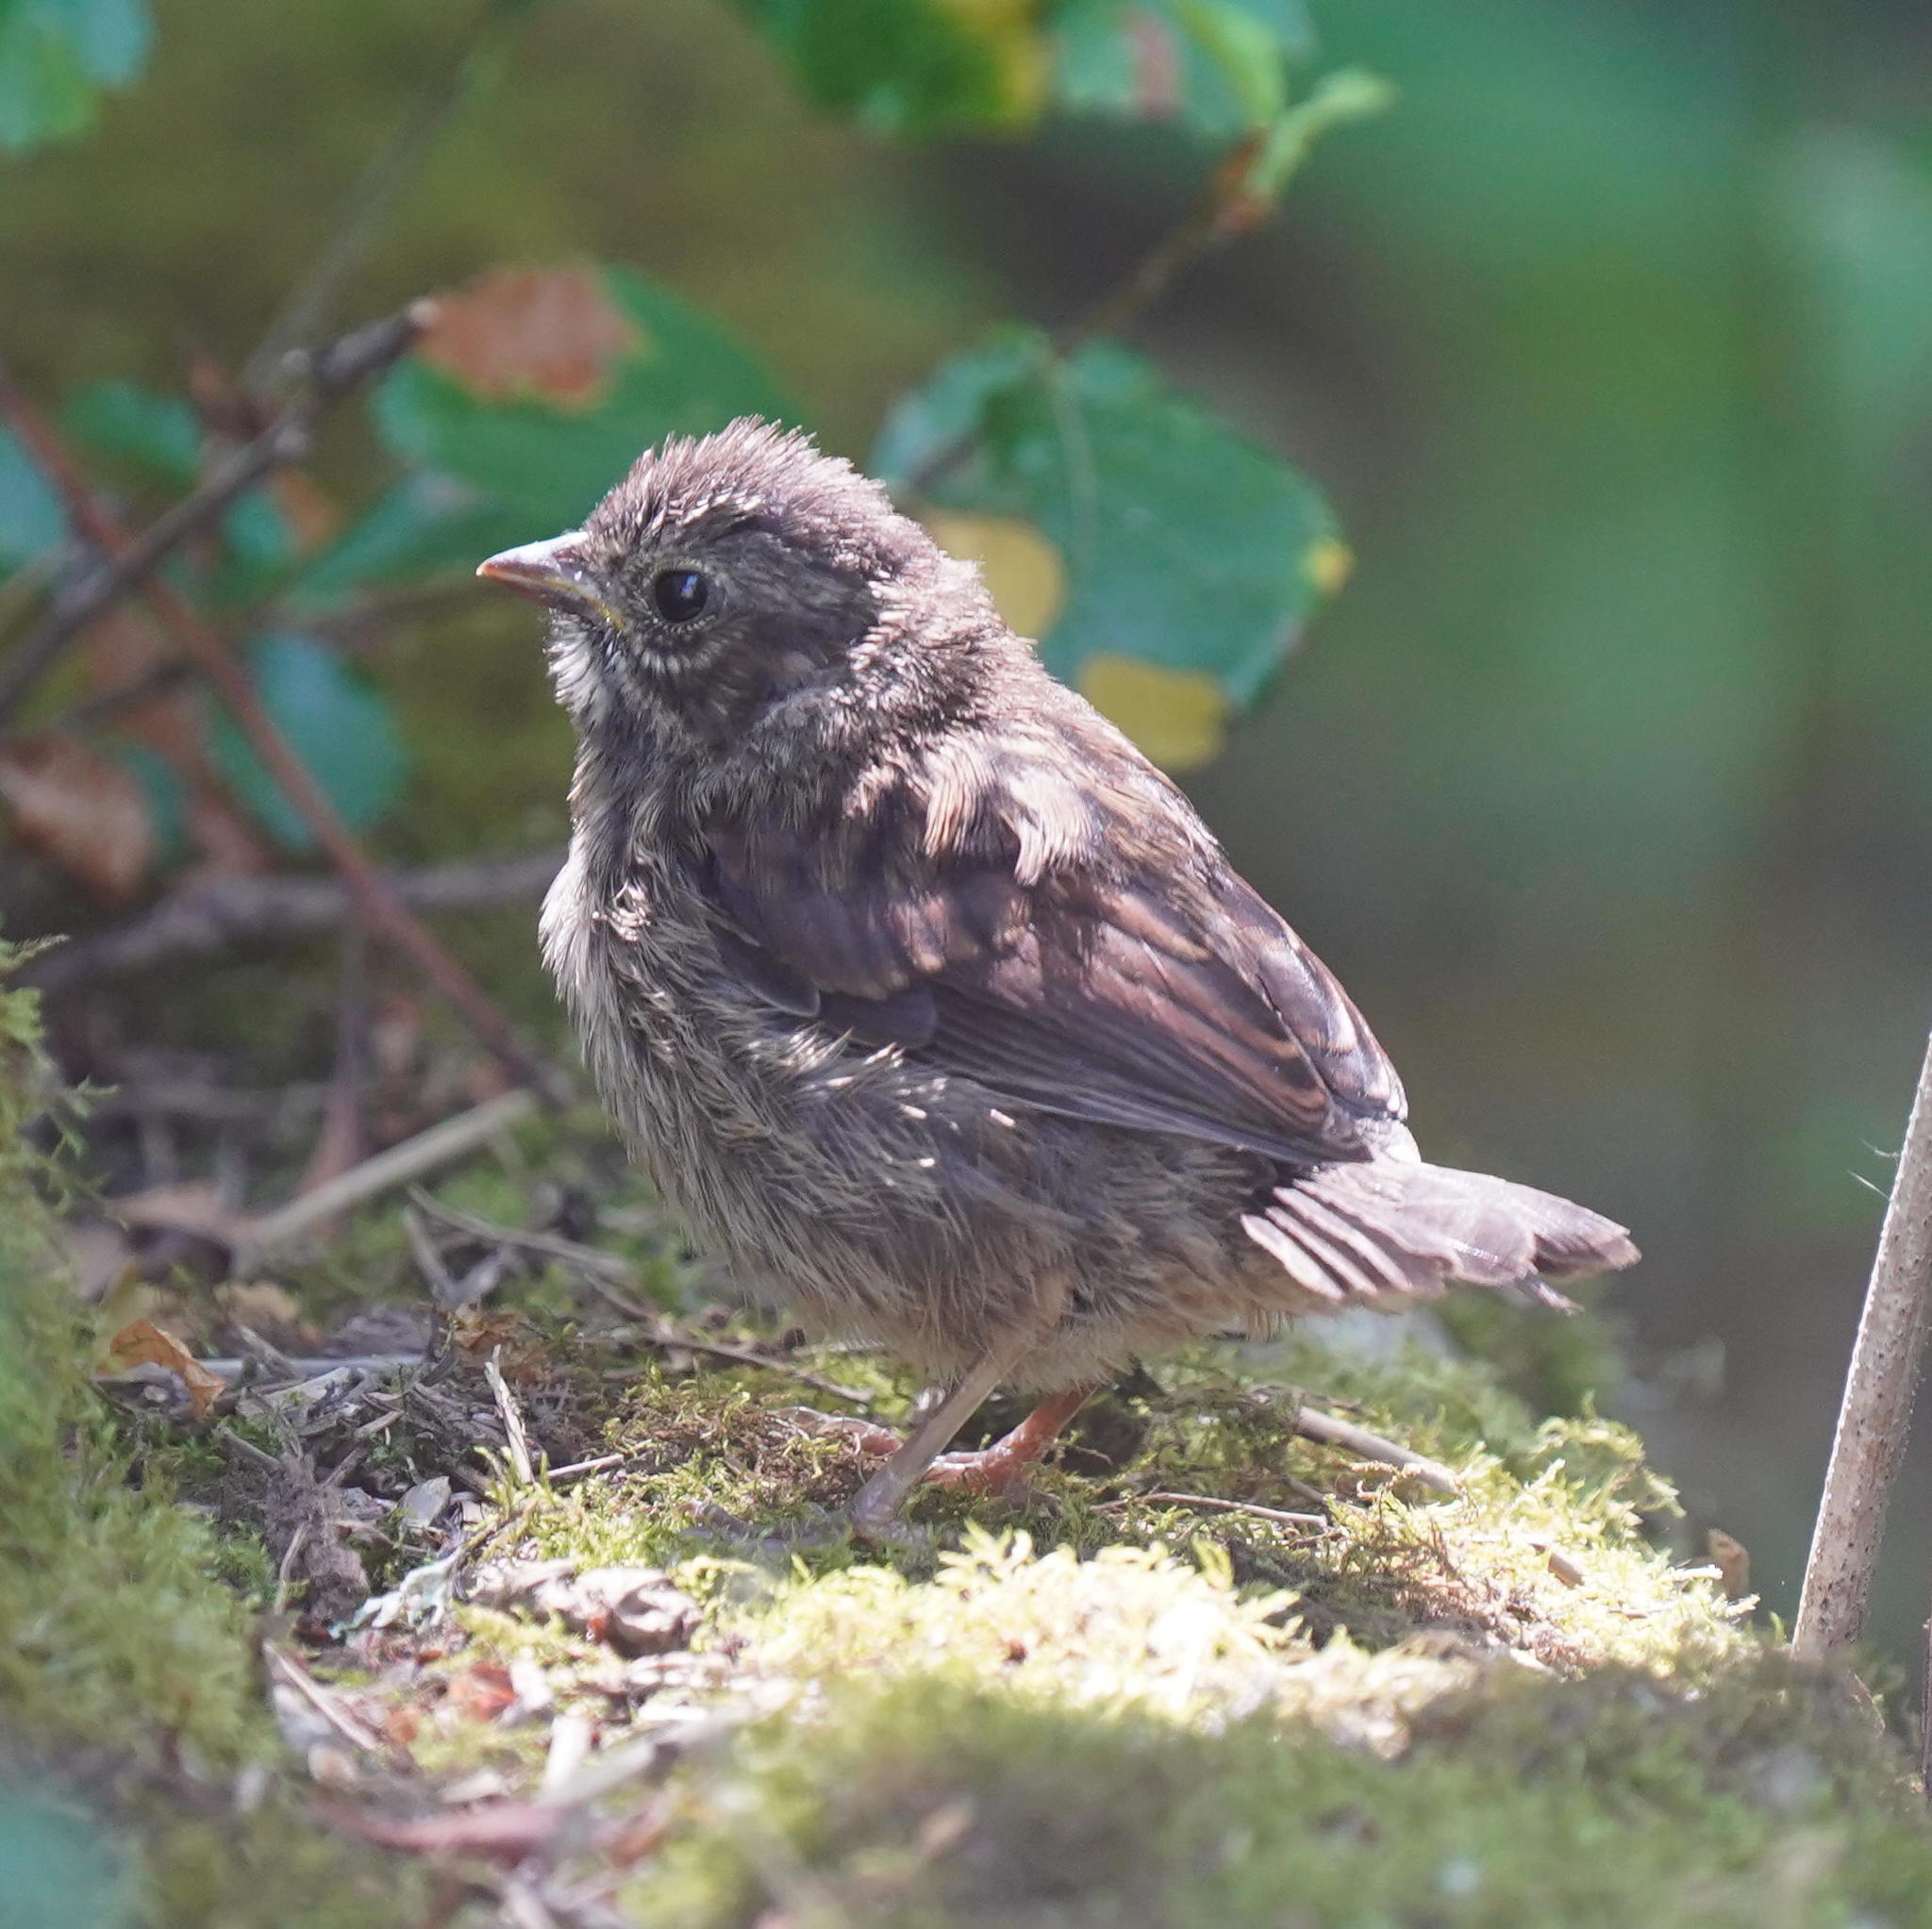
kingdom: Animalia
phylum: Chordata
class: Aves
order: Passeriformes
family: Passerellidae
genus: Melospiza
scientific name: Melospiza melodia
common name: Song sparrow
